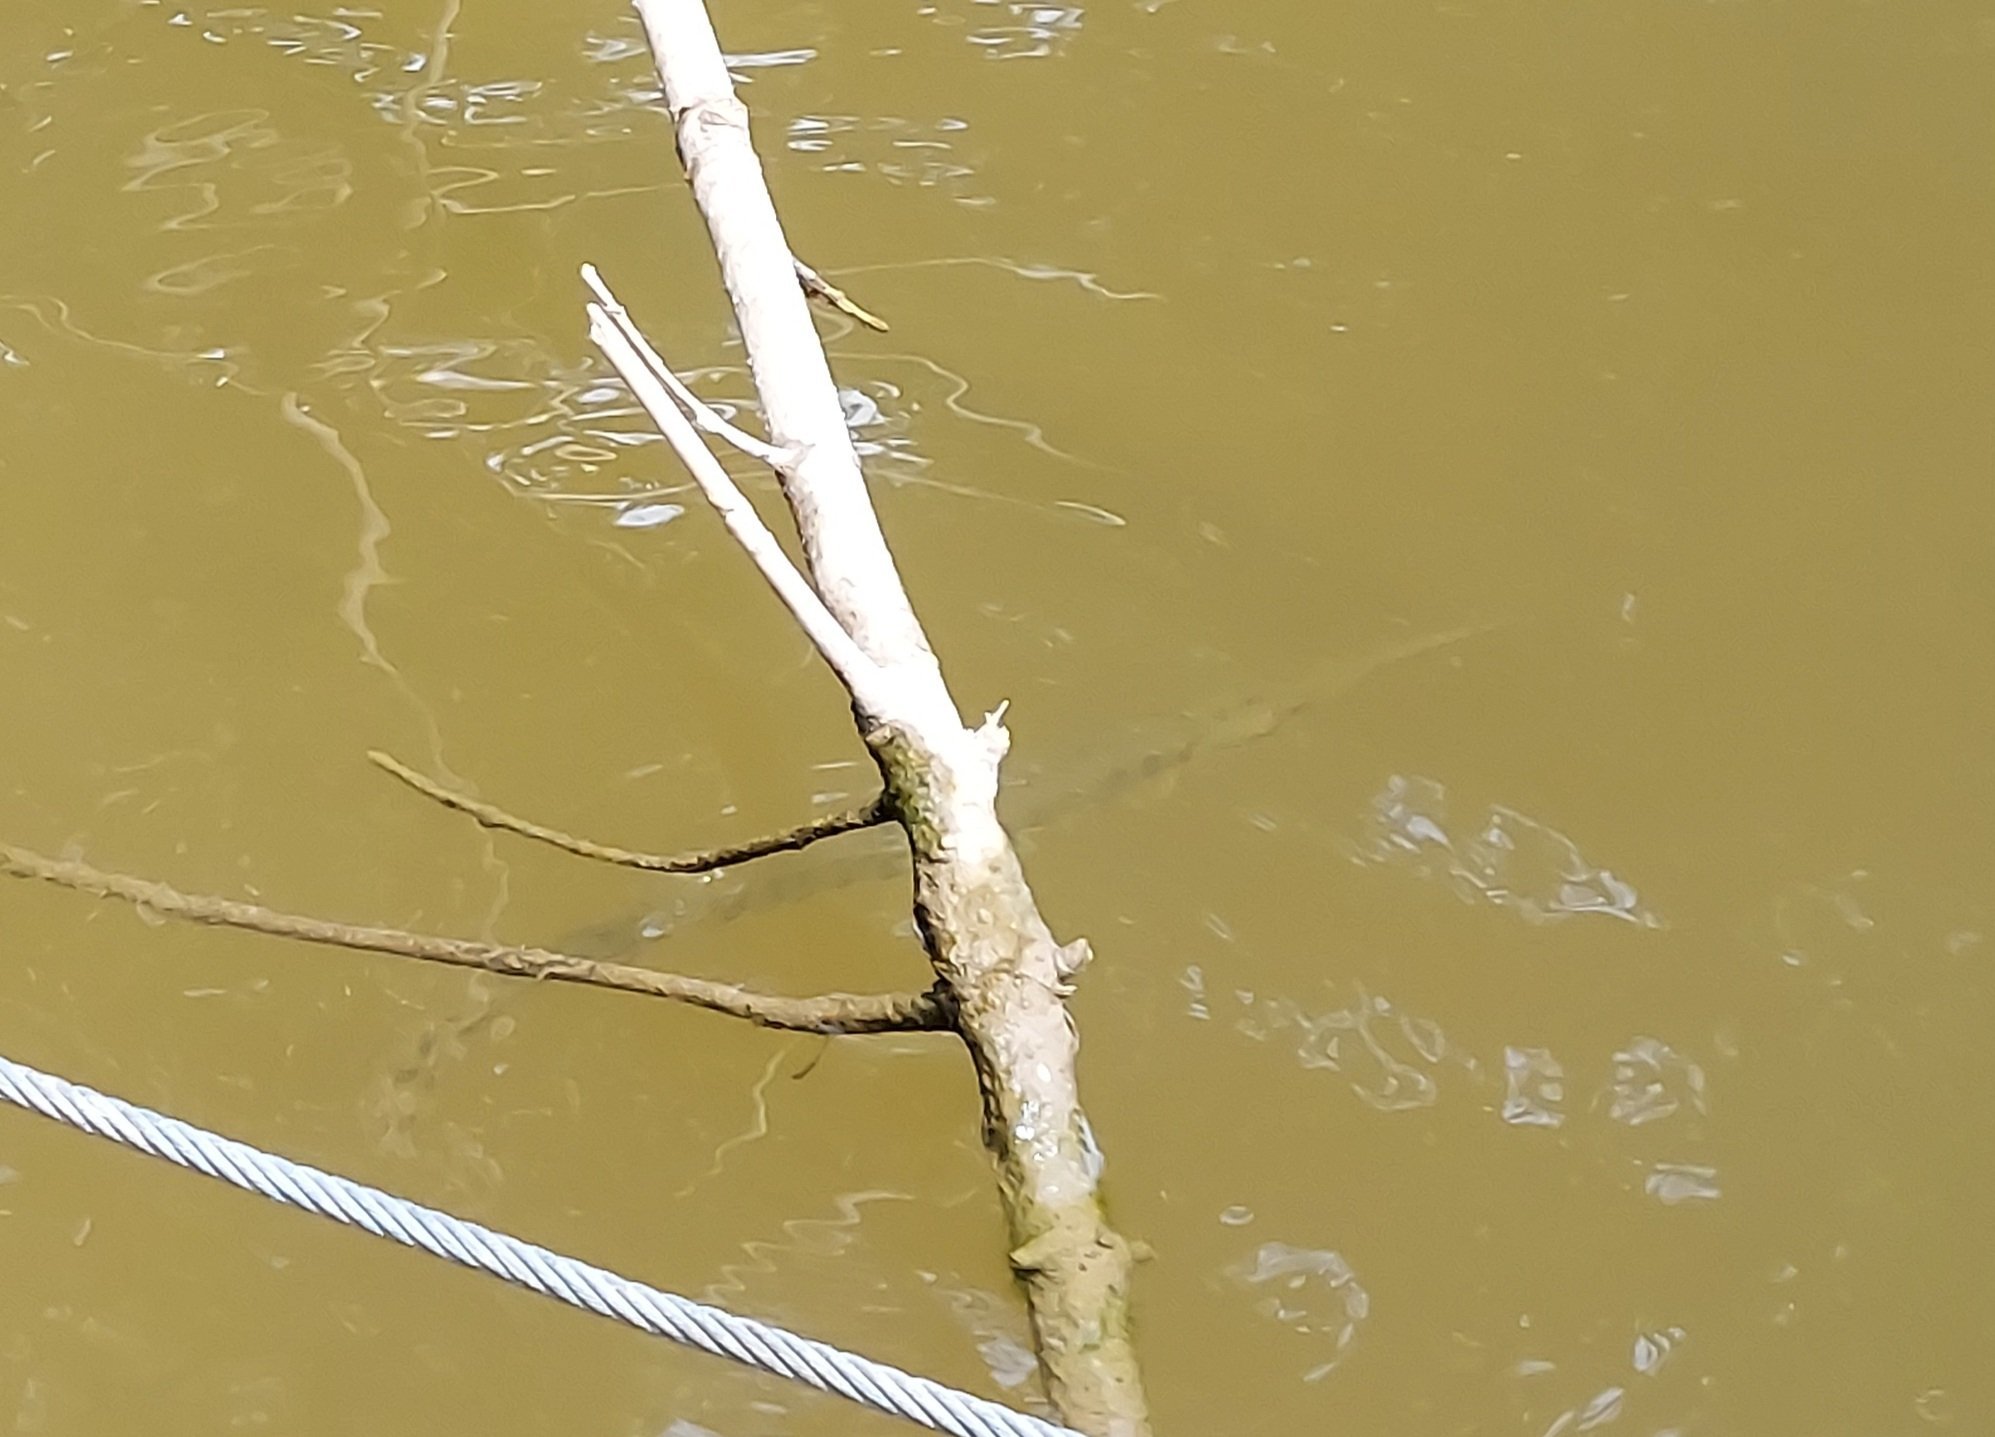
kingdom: Animalia
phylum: Chordata
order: Lepisosteiformes
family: Lepisosteidae
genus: Lepisosteus
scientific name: Lepisosteus osseus
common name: Longnose gar
